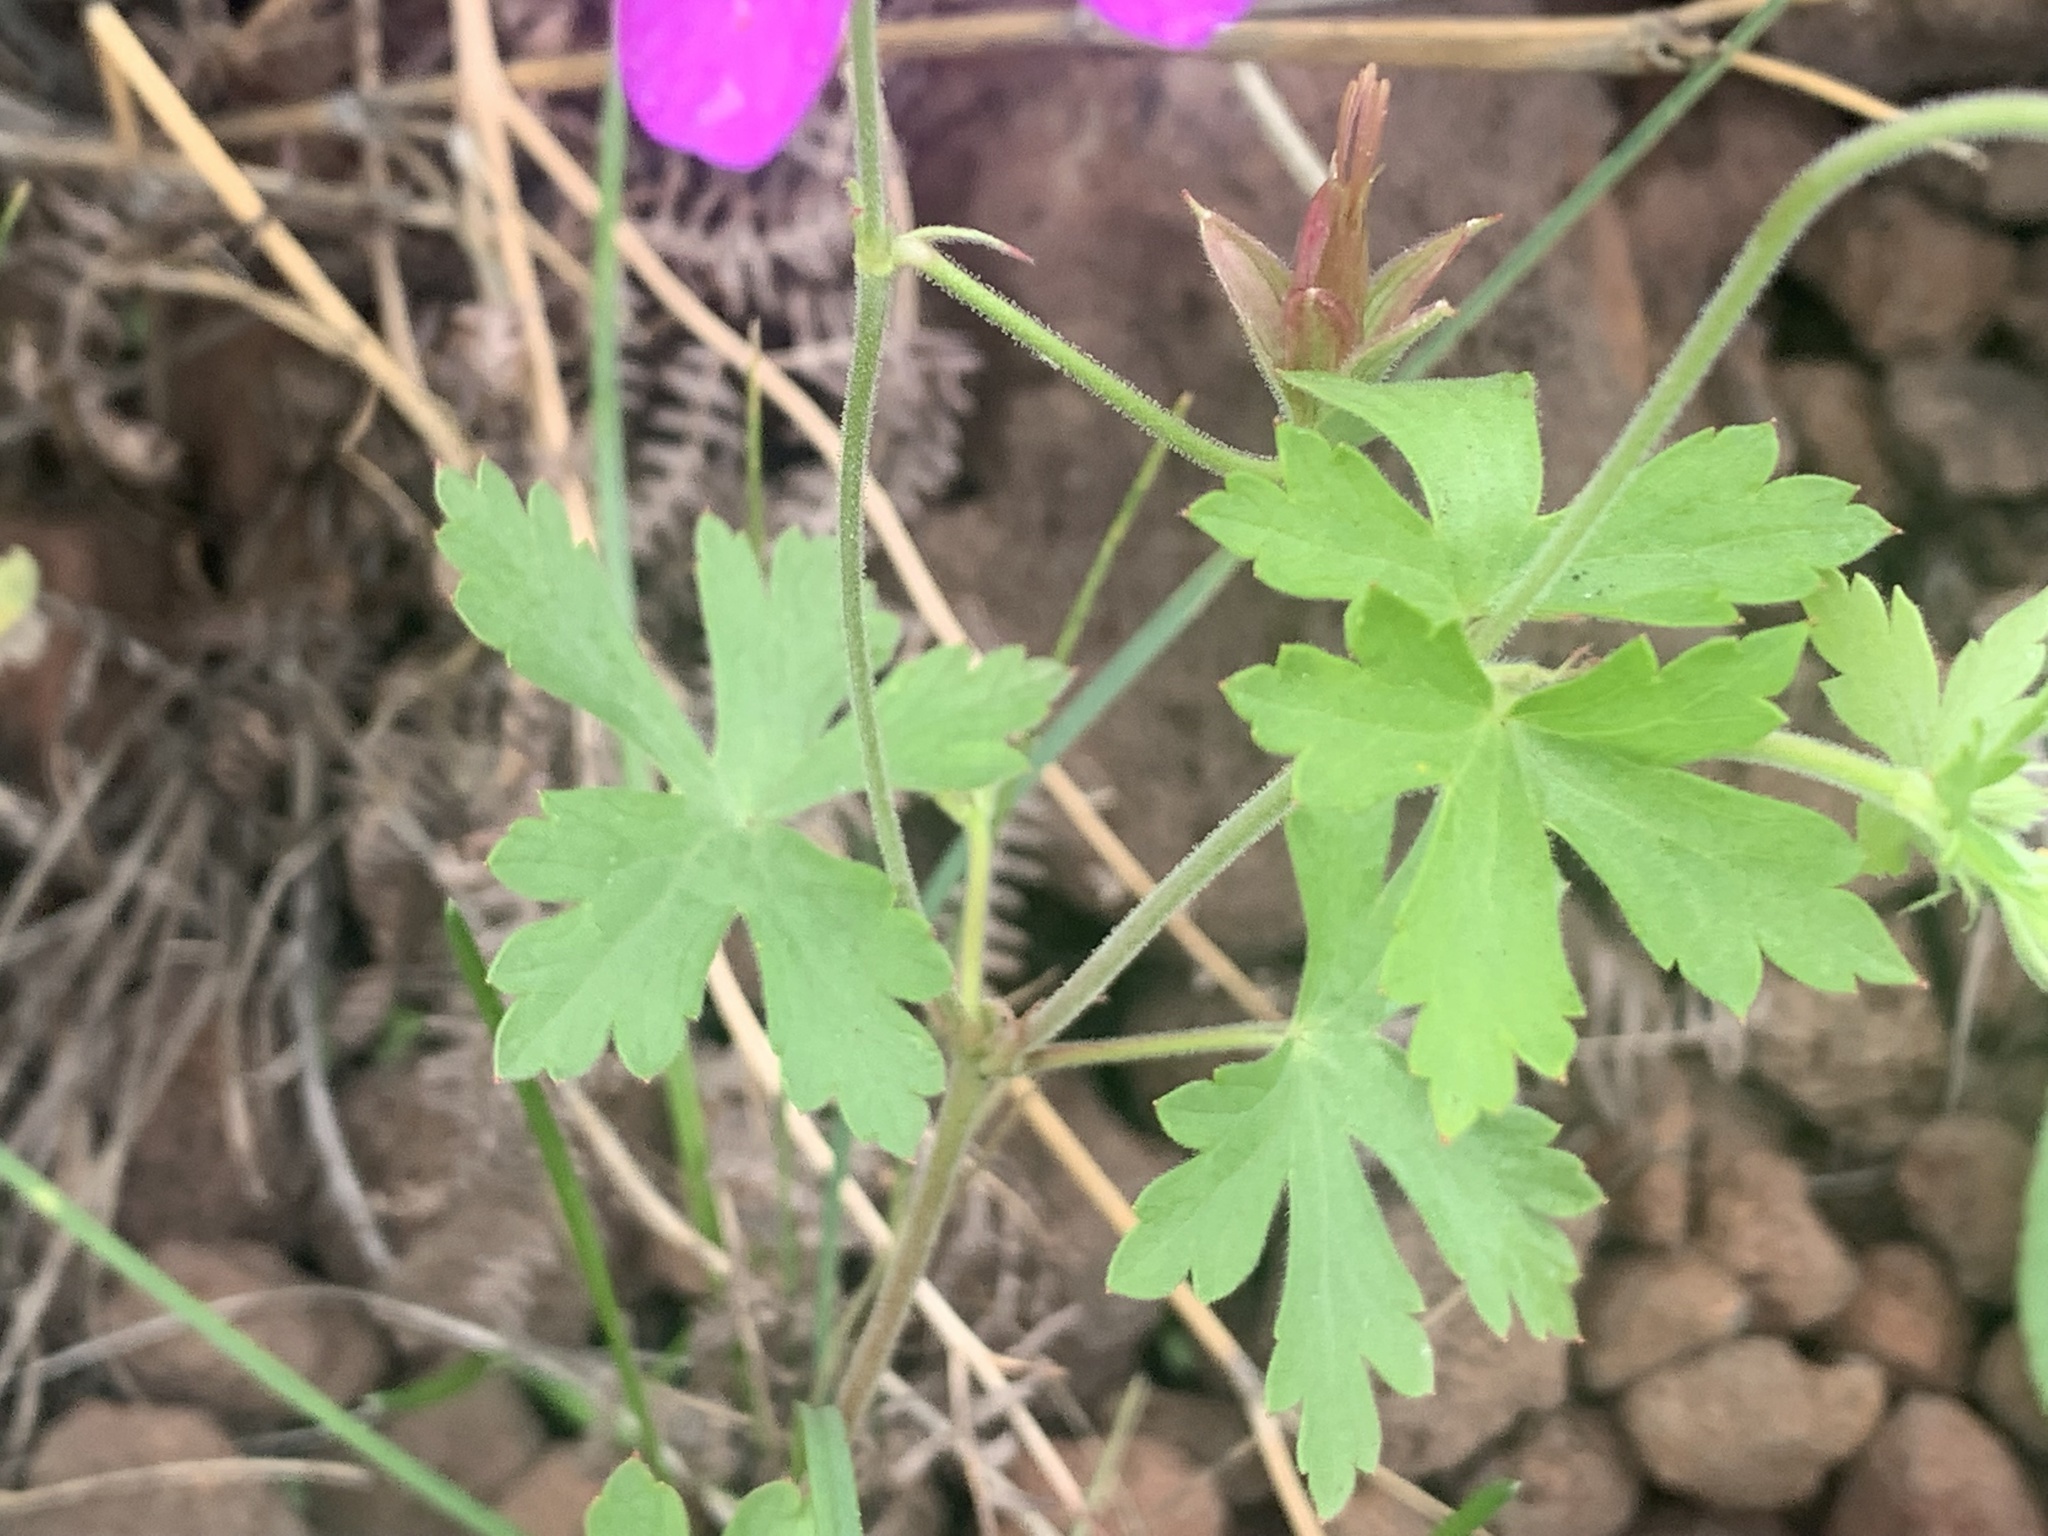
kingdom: Plantae
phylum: Tracheophyta
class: Magnoliopsida
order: Geraniales
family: Geraniaceae
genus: Geranium
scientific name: Geranium caespitosum
